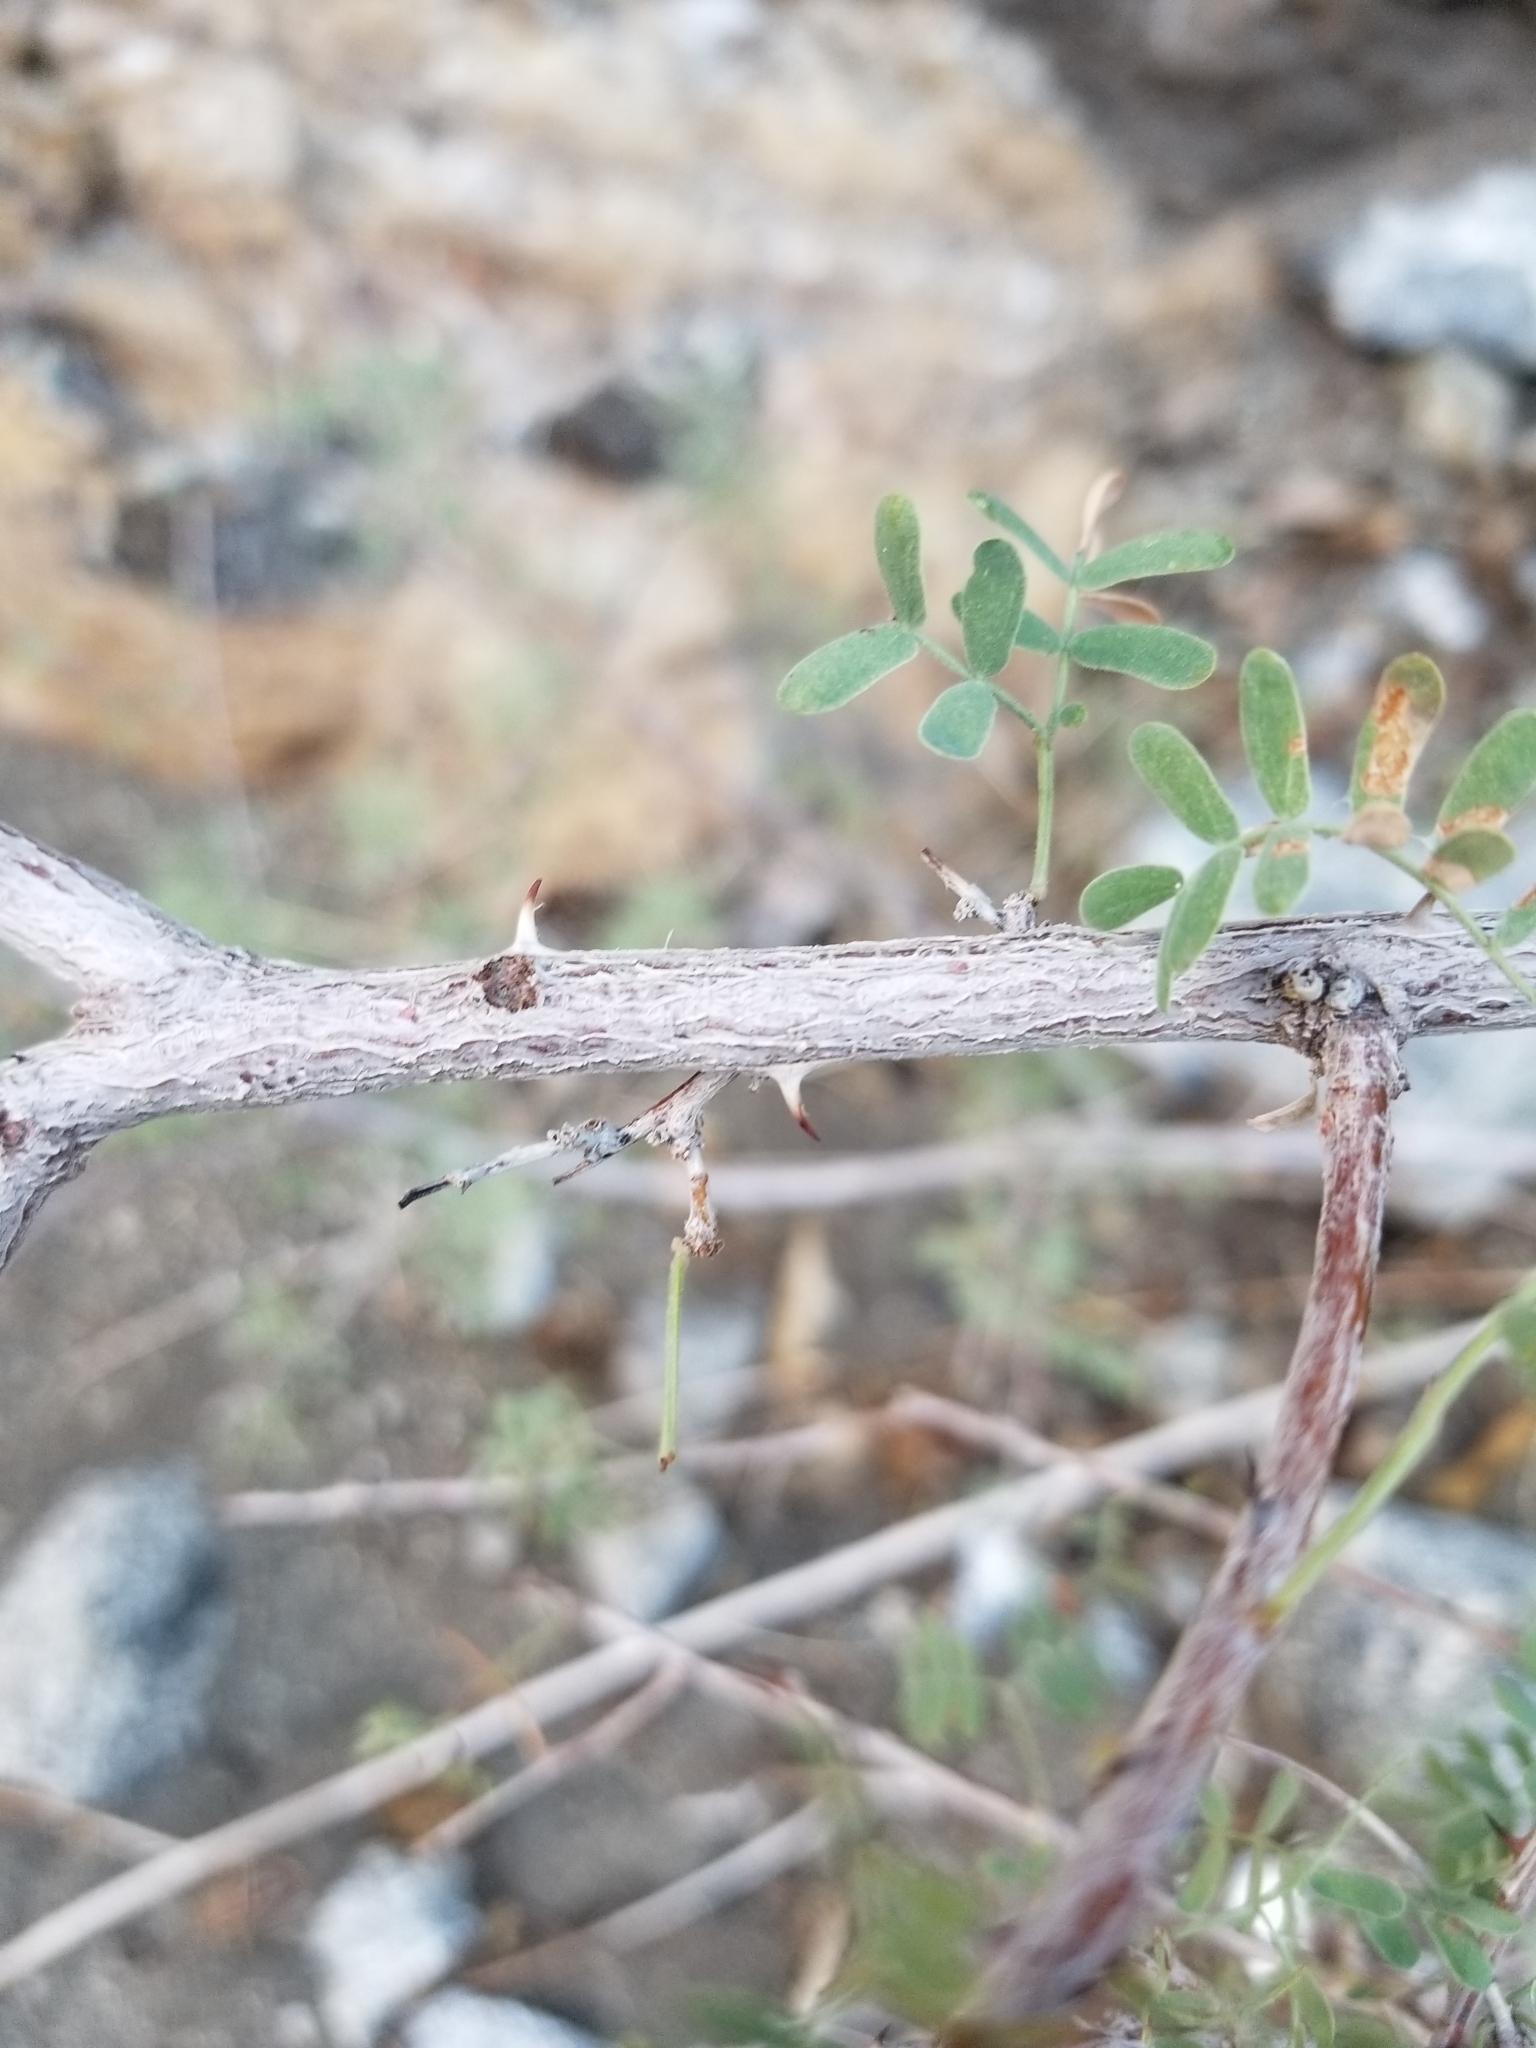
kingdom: Plantae
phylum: Tracheophyta
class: Magnoliopsida
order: Fabales
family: Fabaceae
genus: Senegalia
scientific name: Senegalia greggii
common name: Texas-mimosa
